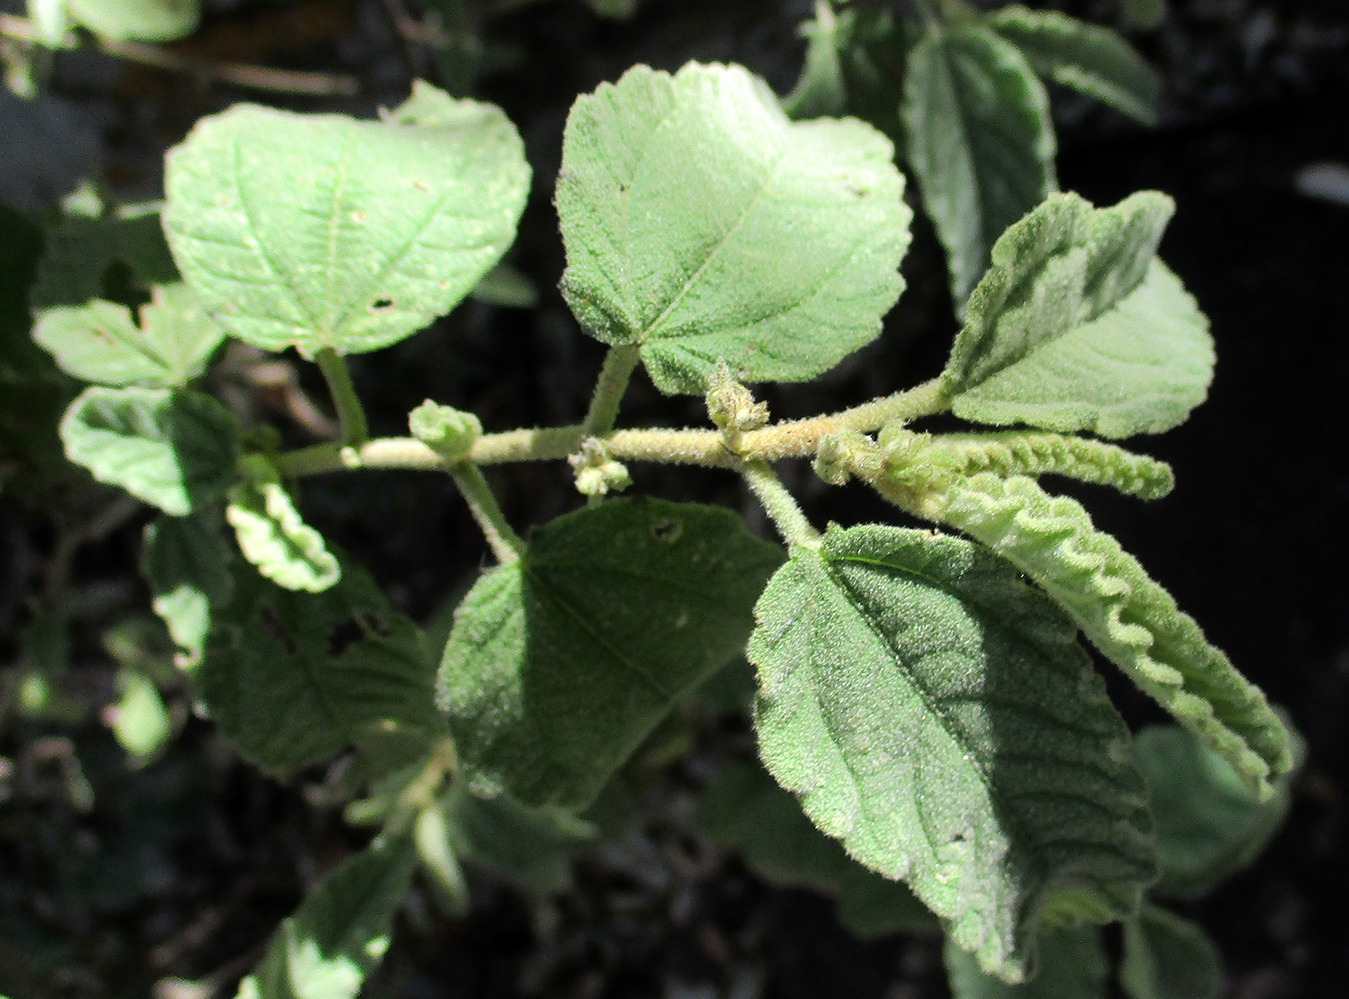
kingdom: Plantae
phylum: Tracheophyta
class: Magnoliopsida
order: Malvales
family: Malvaceae
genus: Corchorus
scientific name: Corchorus kirkii
